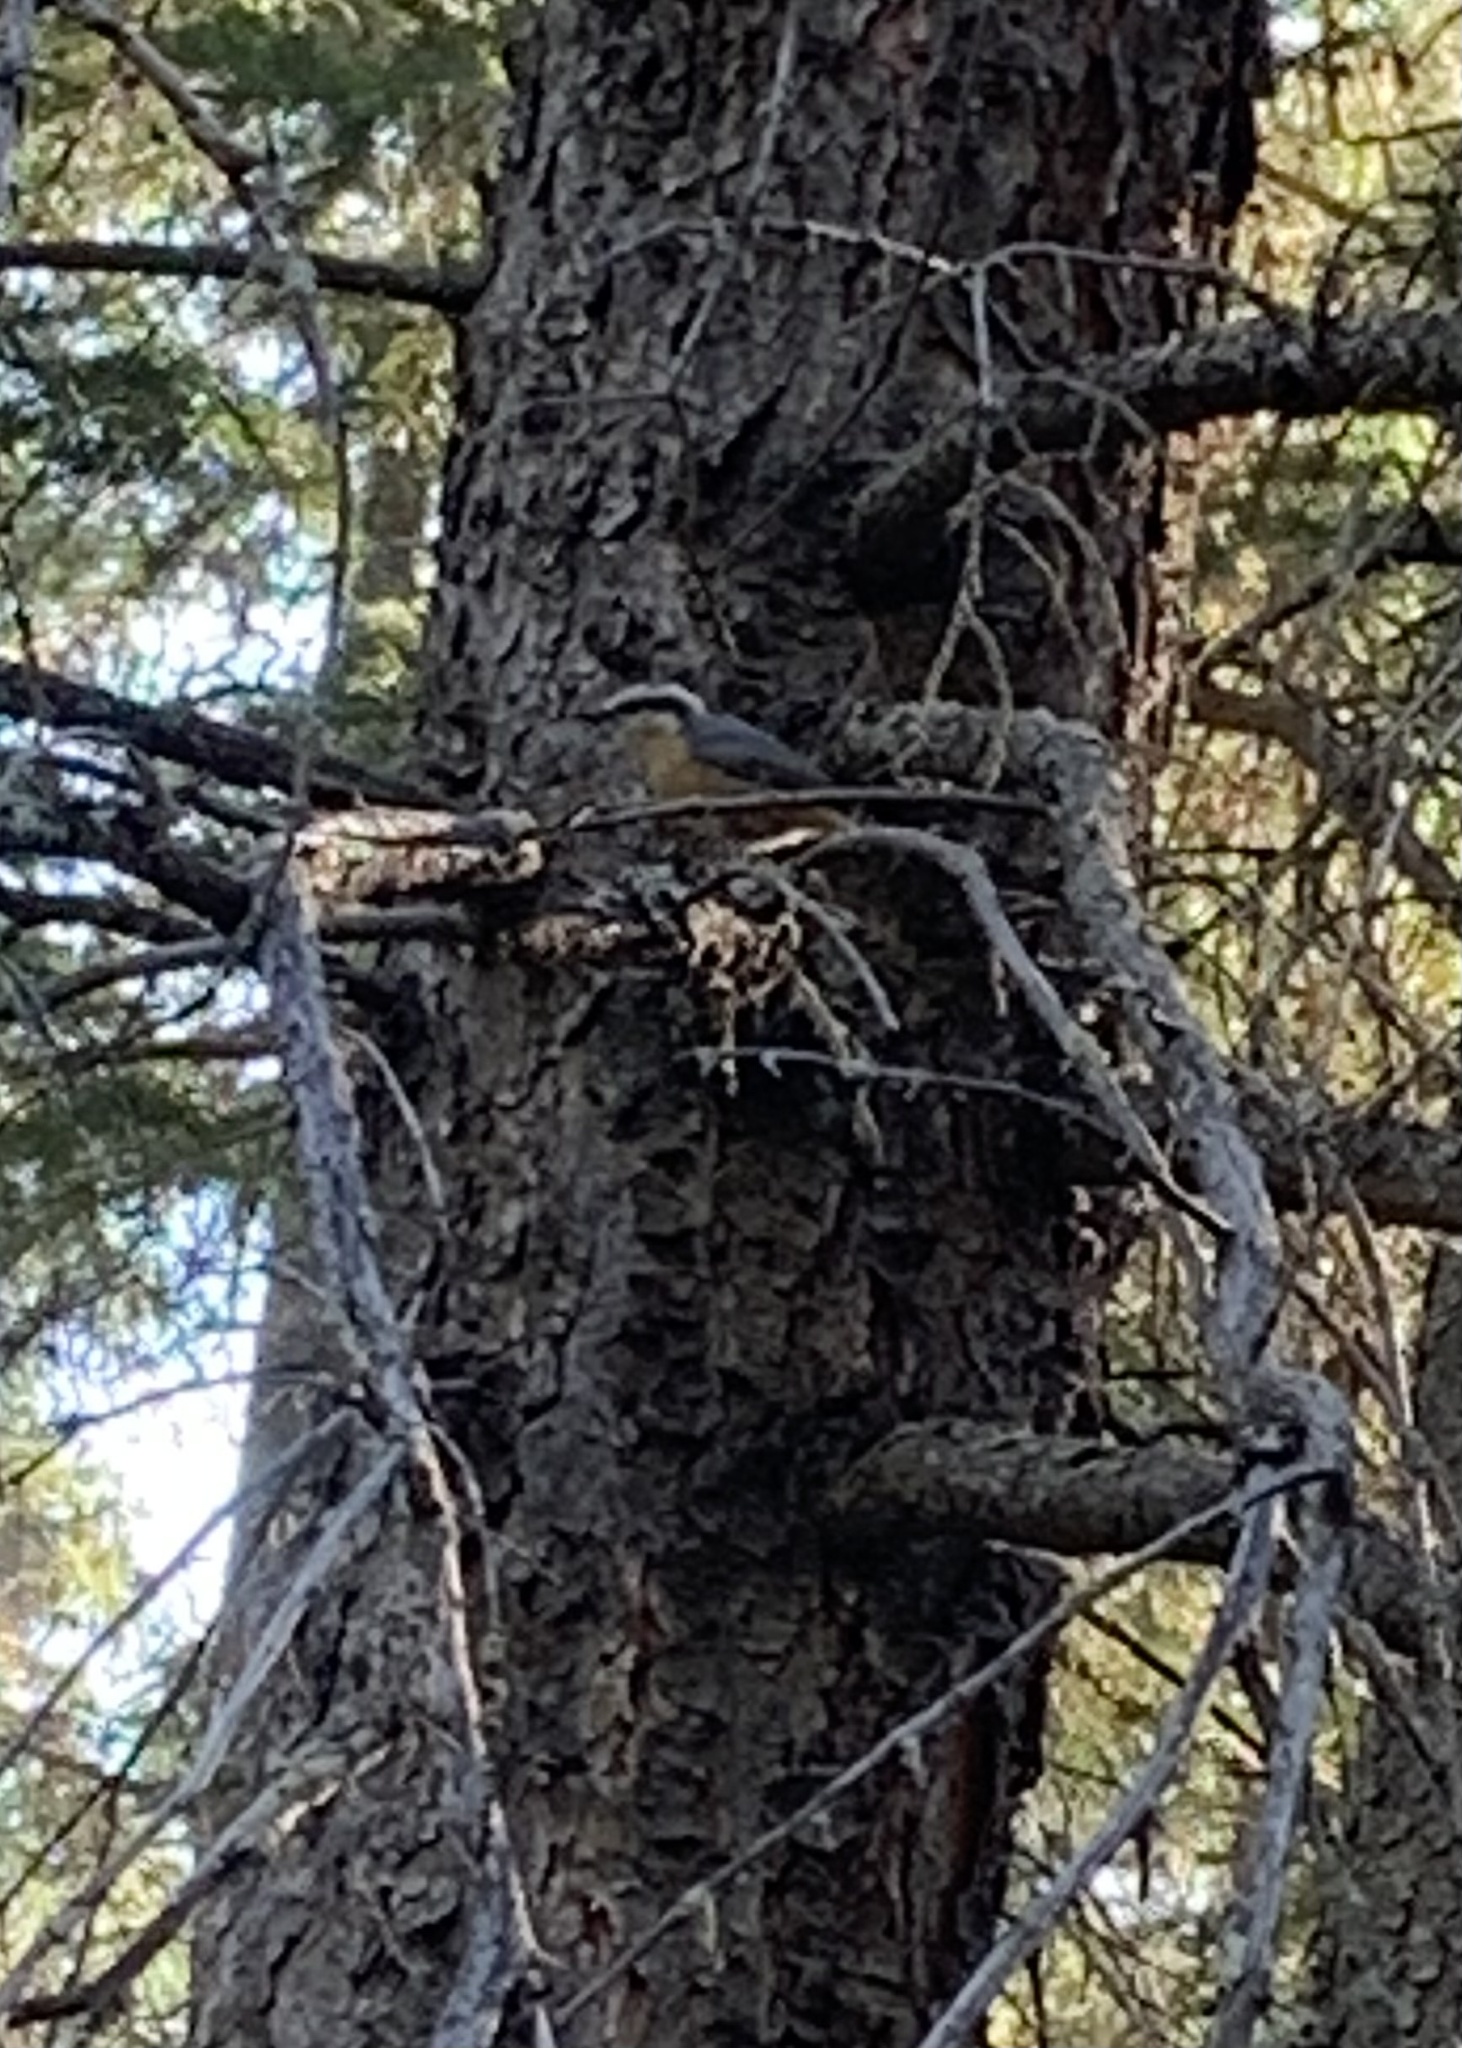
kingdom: Animalia
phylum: Chordata
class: Aves
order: Passeriformes
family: Sittidae
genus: Sitta
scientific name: Sitta canadensis
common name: Red-breasted nuthatch
